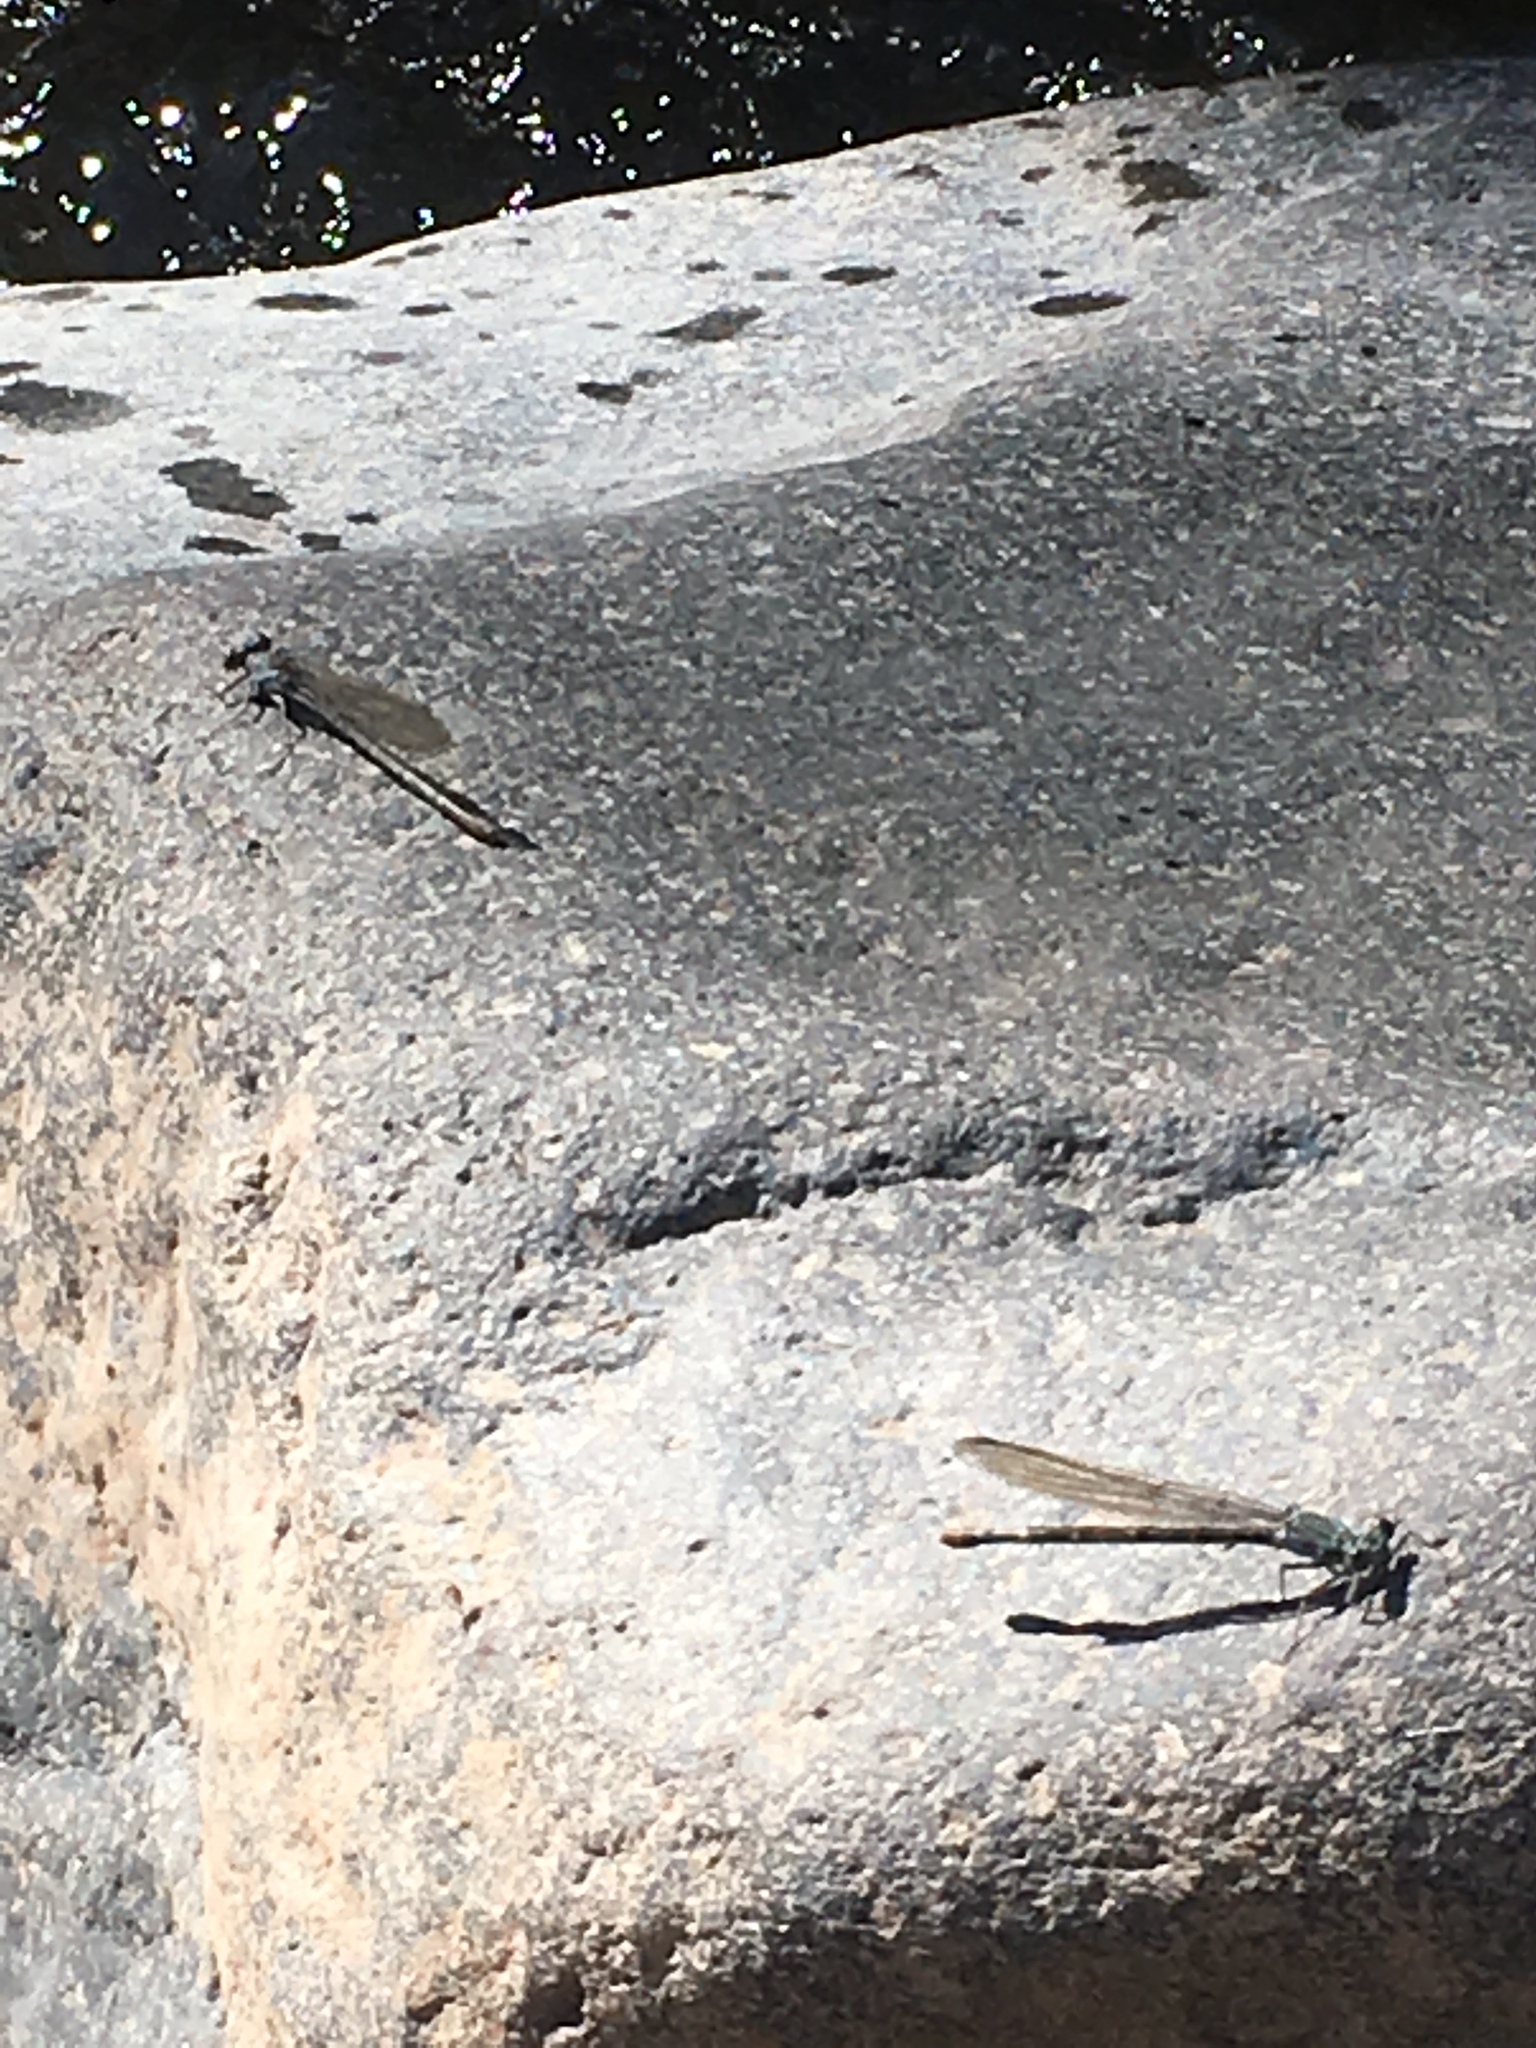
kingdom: Animalia
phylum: Arthropoda
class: Insecta
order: Odonata
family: Coenagrionidae
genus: Argia
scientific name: Argia lugens
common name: Sooty dancer
